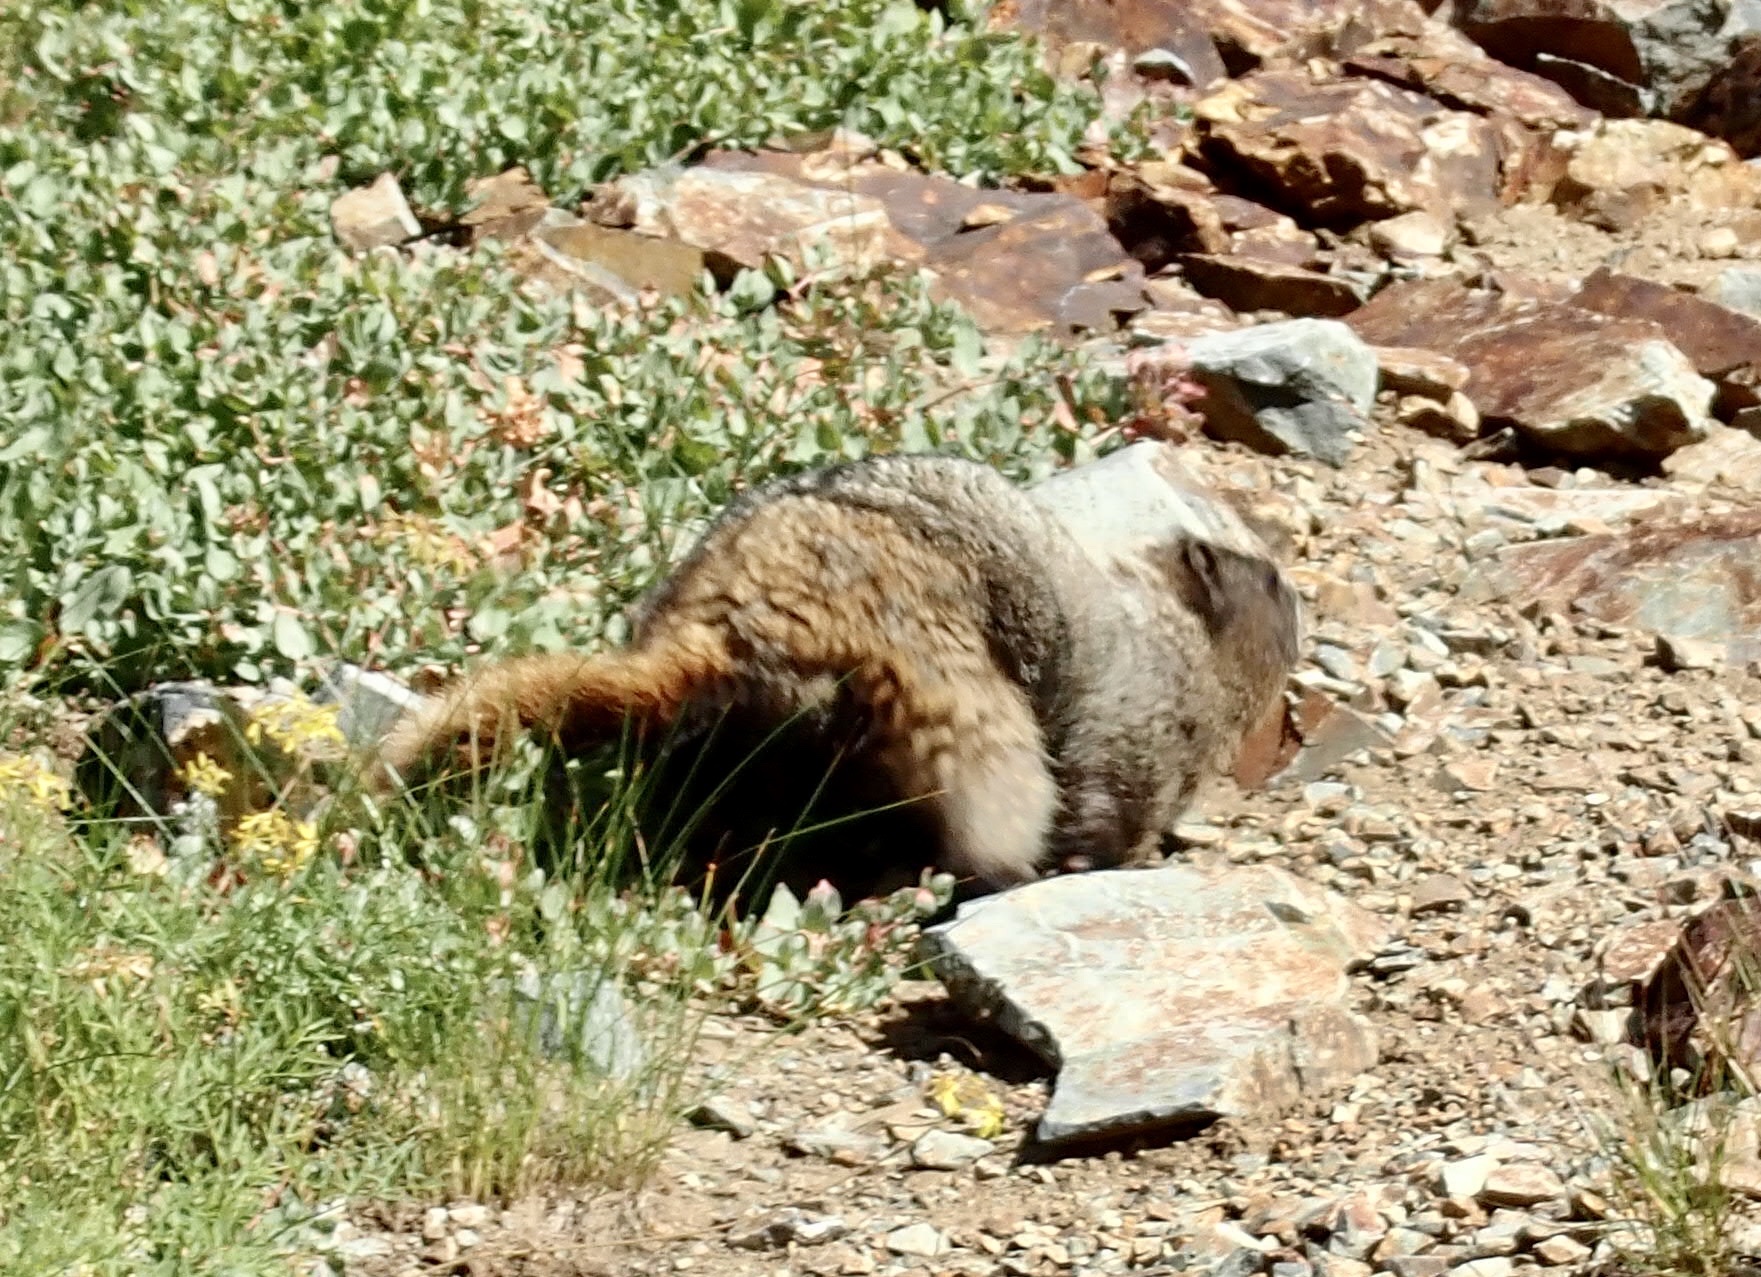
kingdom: Animalia
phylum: Chordata
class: Mammalia
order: Rodentia
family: Sciuridae
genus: Marmota
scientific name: Marmota caligata
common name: Hoary marmot
